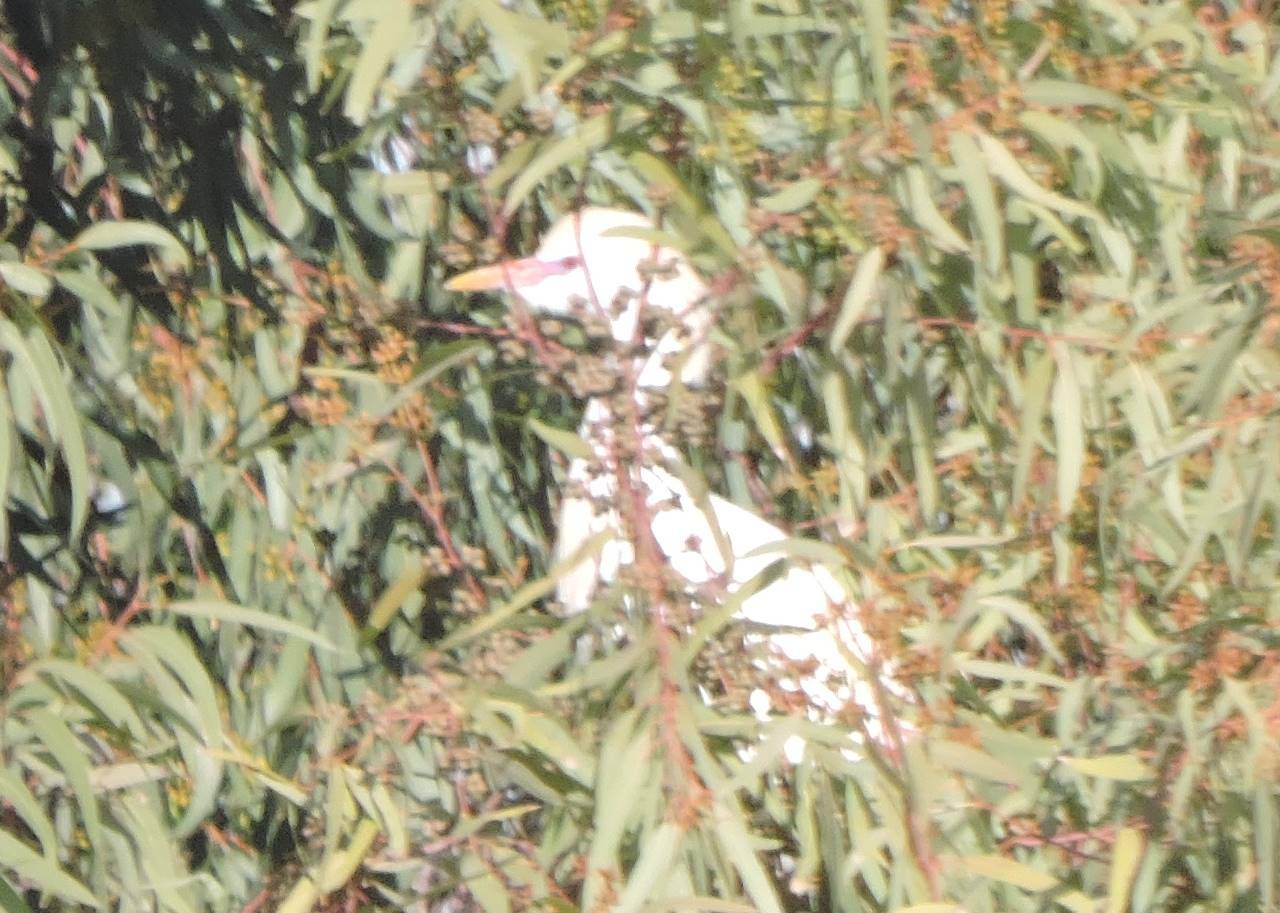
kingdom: Animalia
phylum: Chordata
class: Aves
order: Pelecaniformes
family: Ardeidae
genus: Bubulcus
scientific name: Bubulcus ibis
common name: Cattle egret
